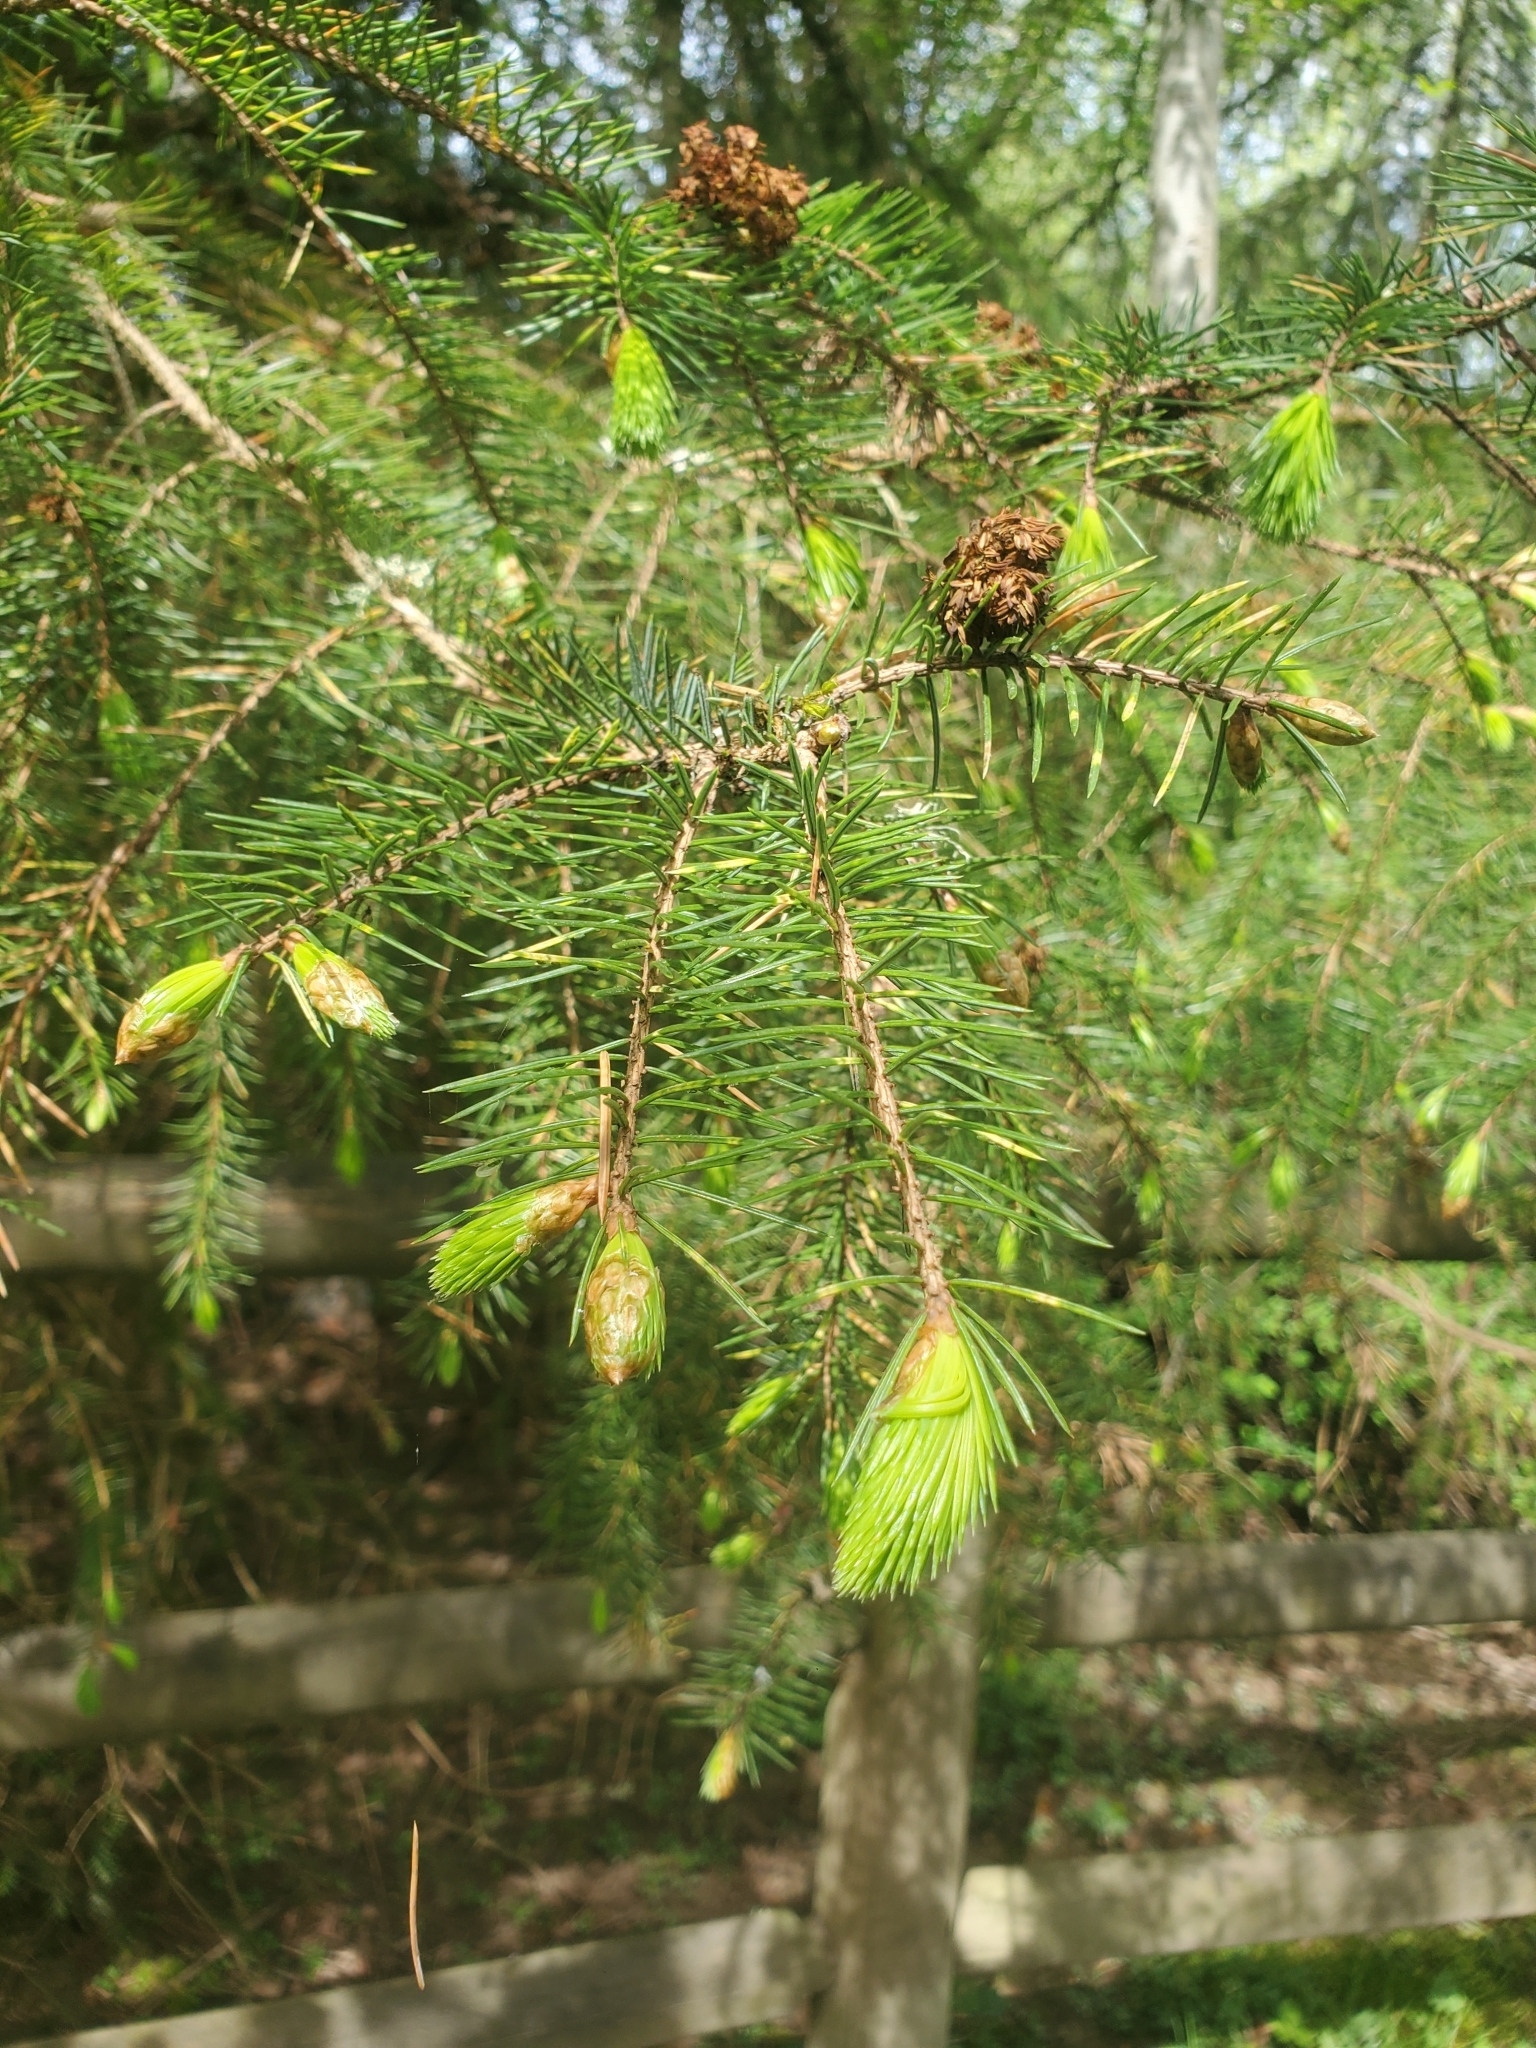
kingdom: Plantae
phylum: Tracheophyta
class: Pinopsida
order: Pinales
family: Pinaceae
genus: Picea
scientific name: Picea sitchensis
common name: Sitka spruce
